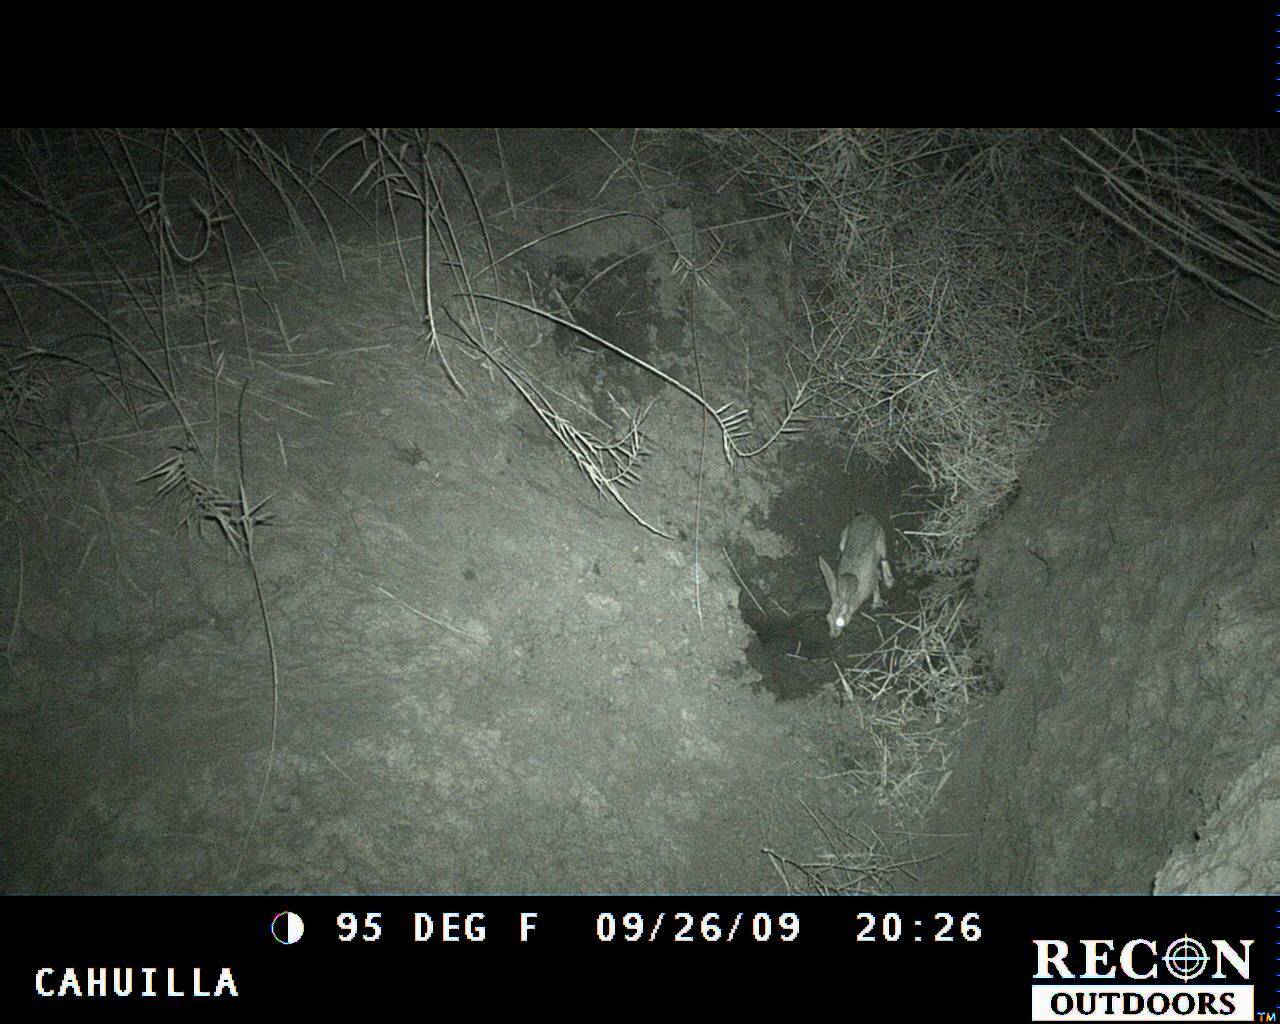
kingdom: Animalia
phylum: Chordata
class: Mammalia
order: Lagomorpha
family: Leporidae
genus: Lepus
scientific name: Lepus californicus
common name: Black-tailed jackrabbit
